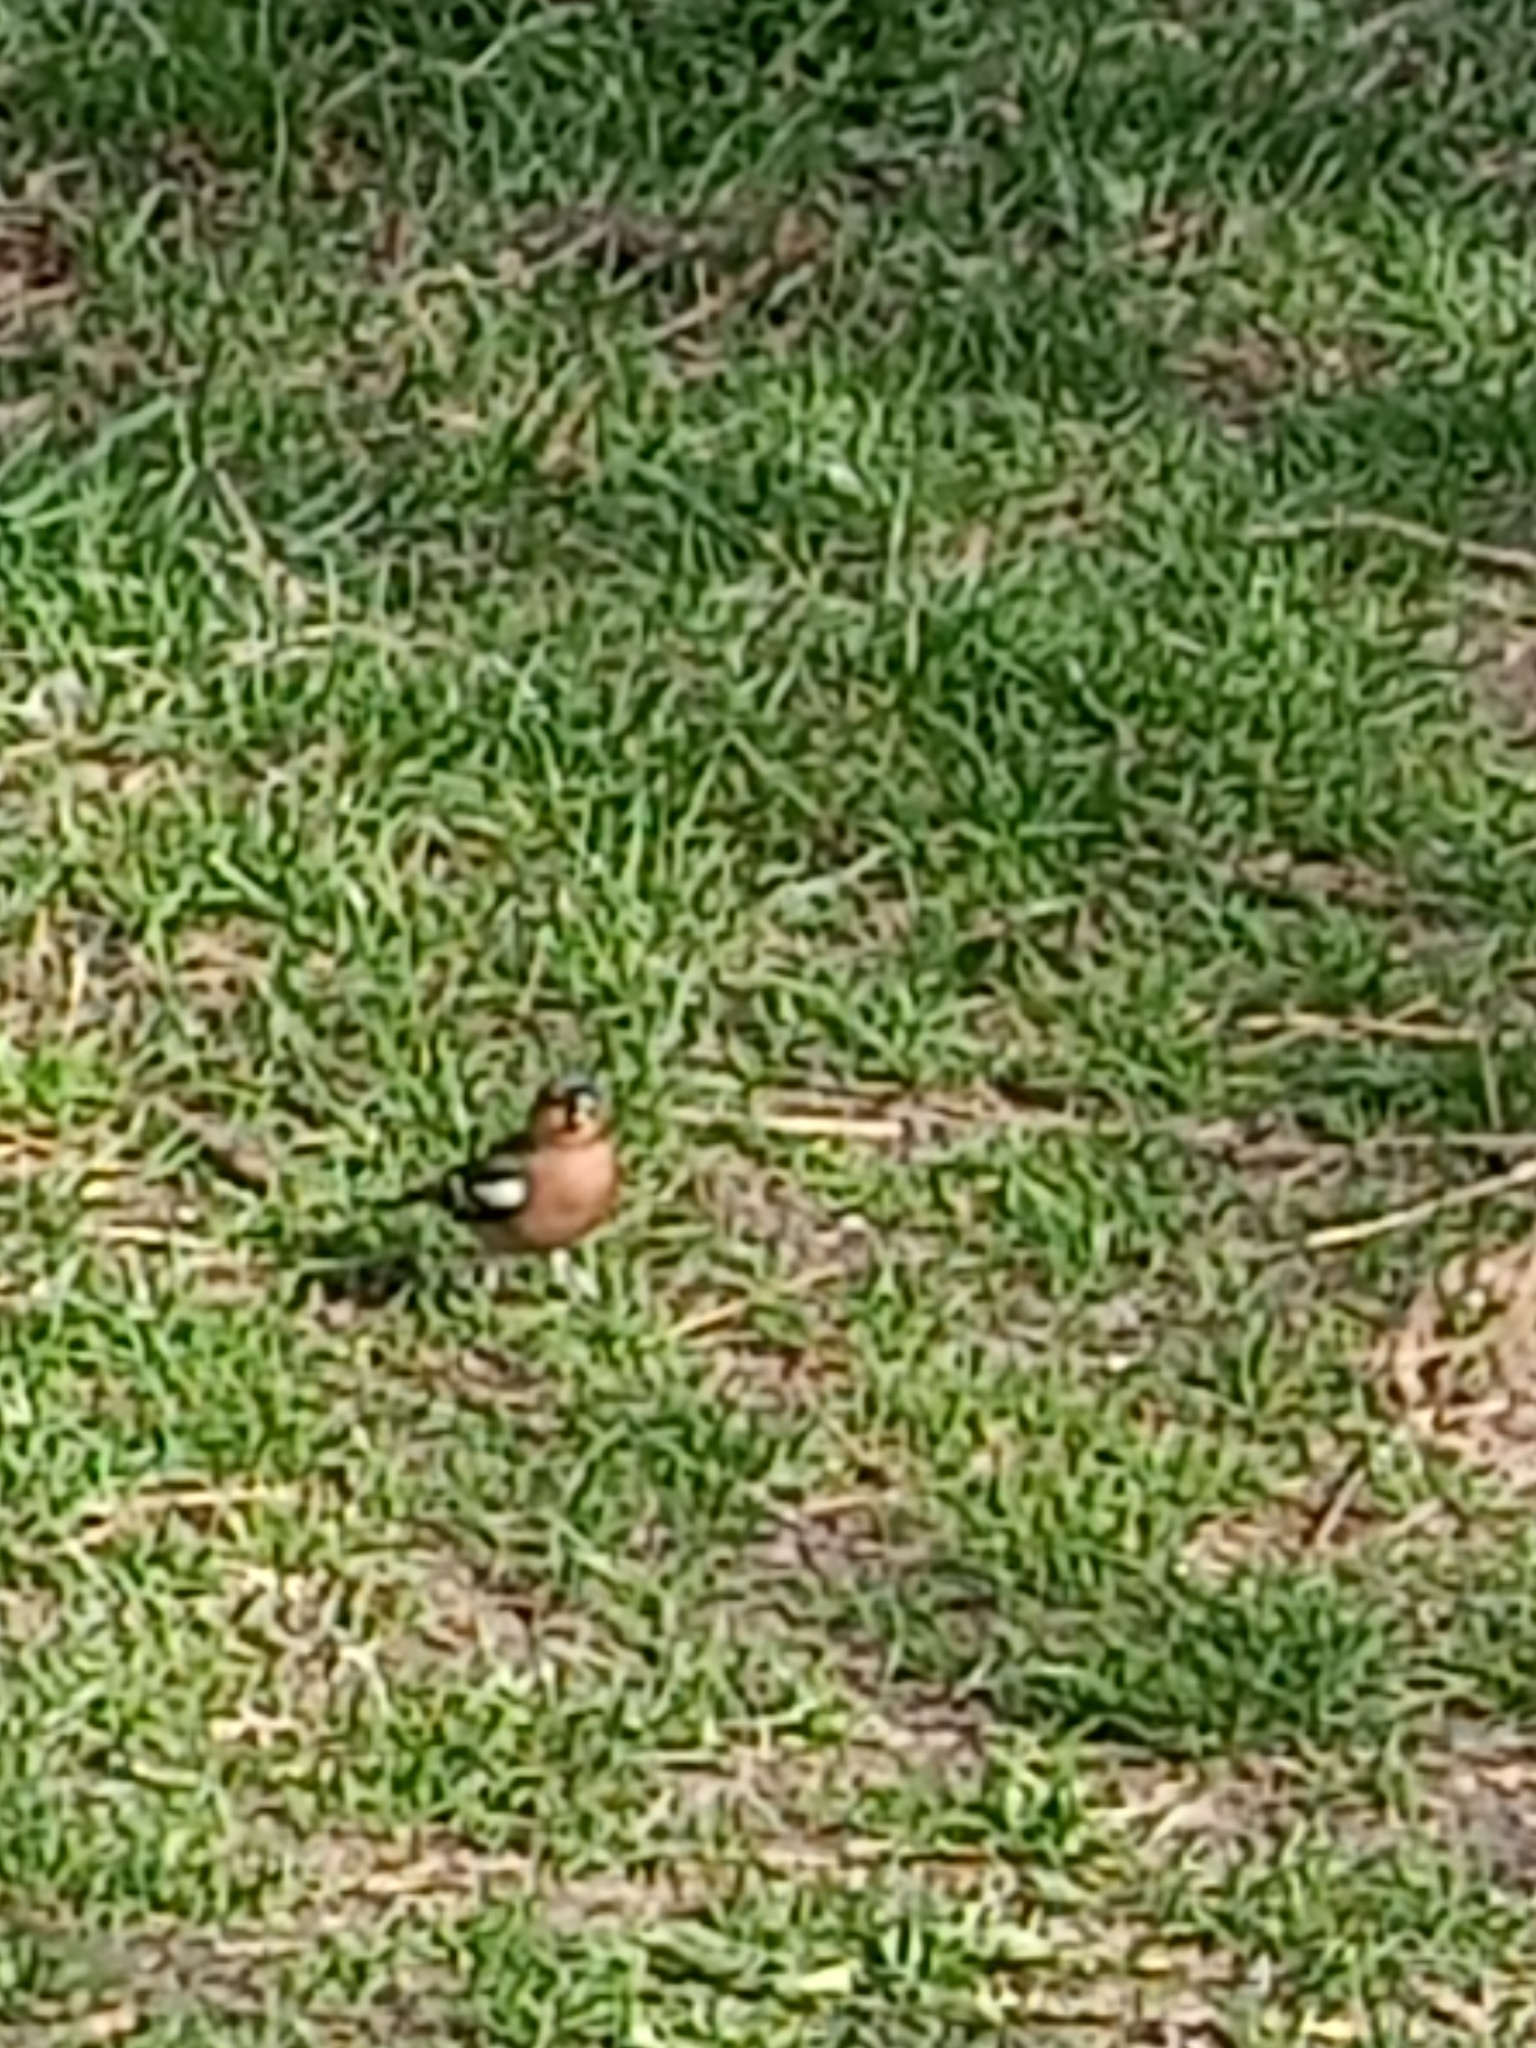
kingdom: Animalia
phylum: Chordata
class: Aves
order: Passeriformes
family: Fringillidae
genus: Fringilla
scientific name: Fringilla coelebs
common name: Common chaffinch
